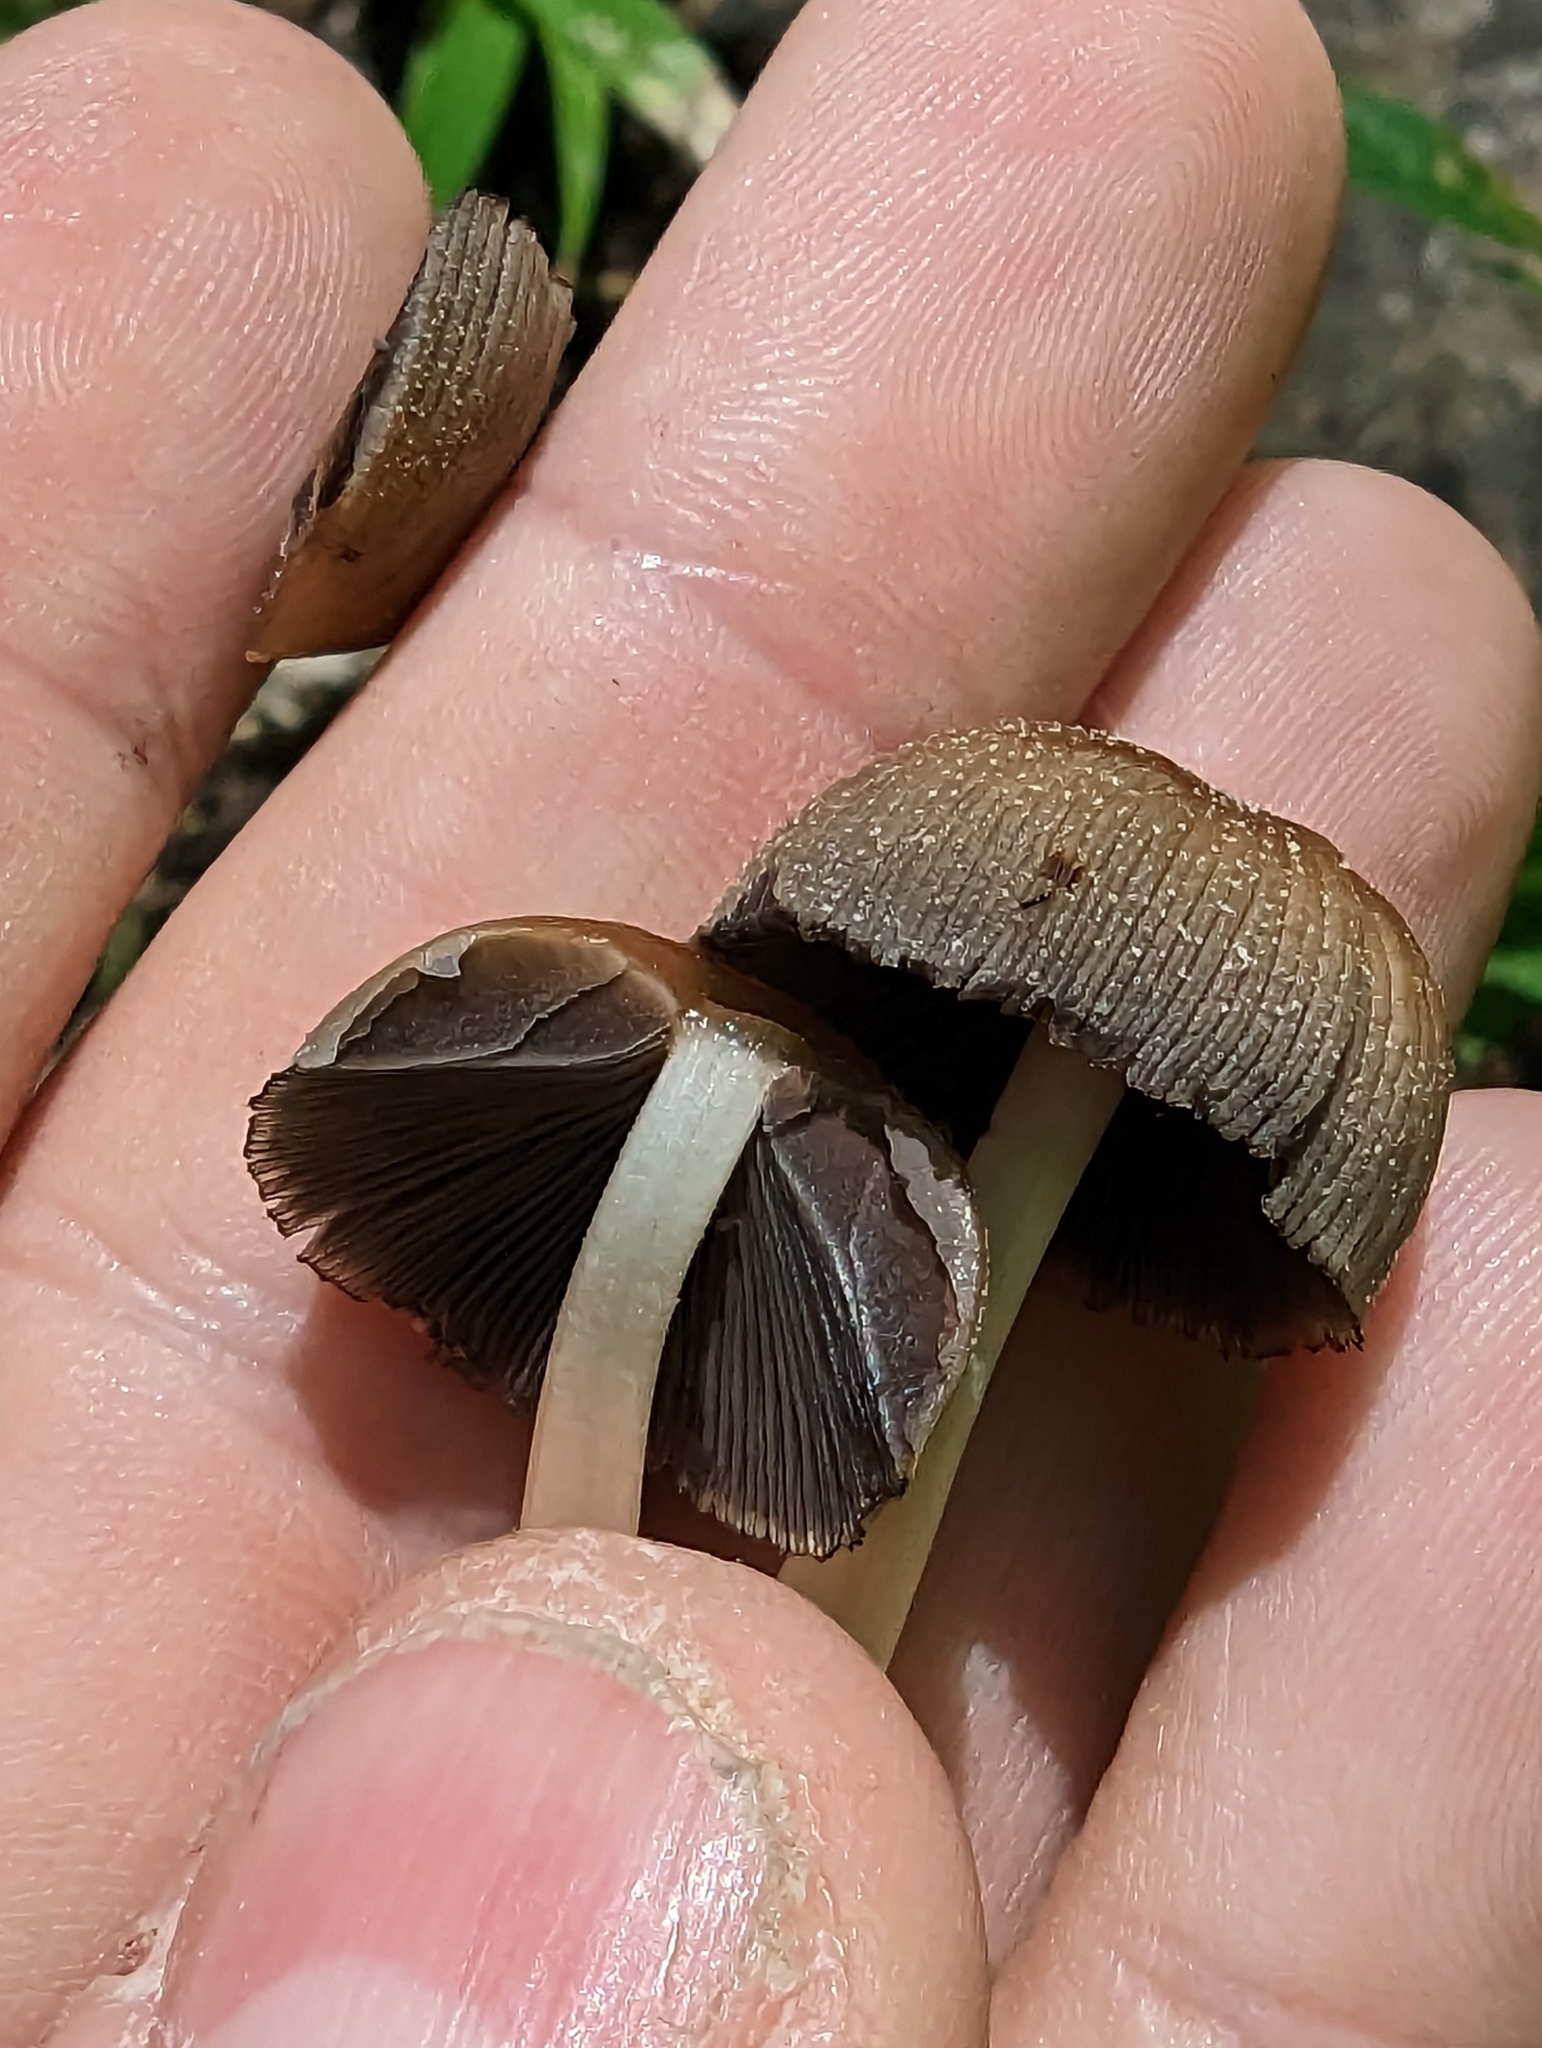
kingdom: Fungi
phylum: Basidiomycota
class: Agaricomycetes
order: Agaricales
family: Psathyrellaceae
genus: Coprinellus
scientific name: Coprinellus micaceus
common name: Glistening ink-cap
